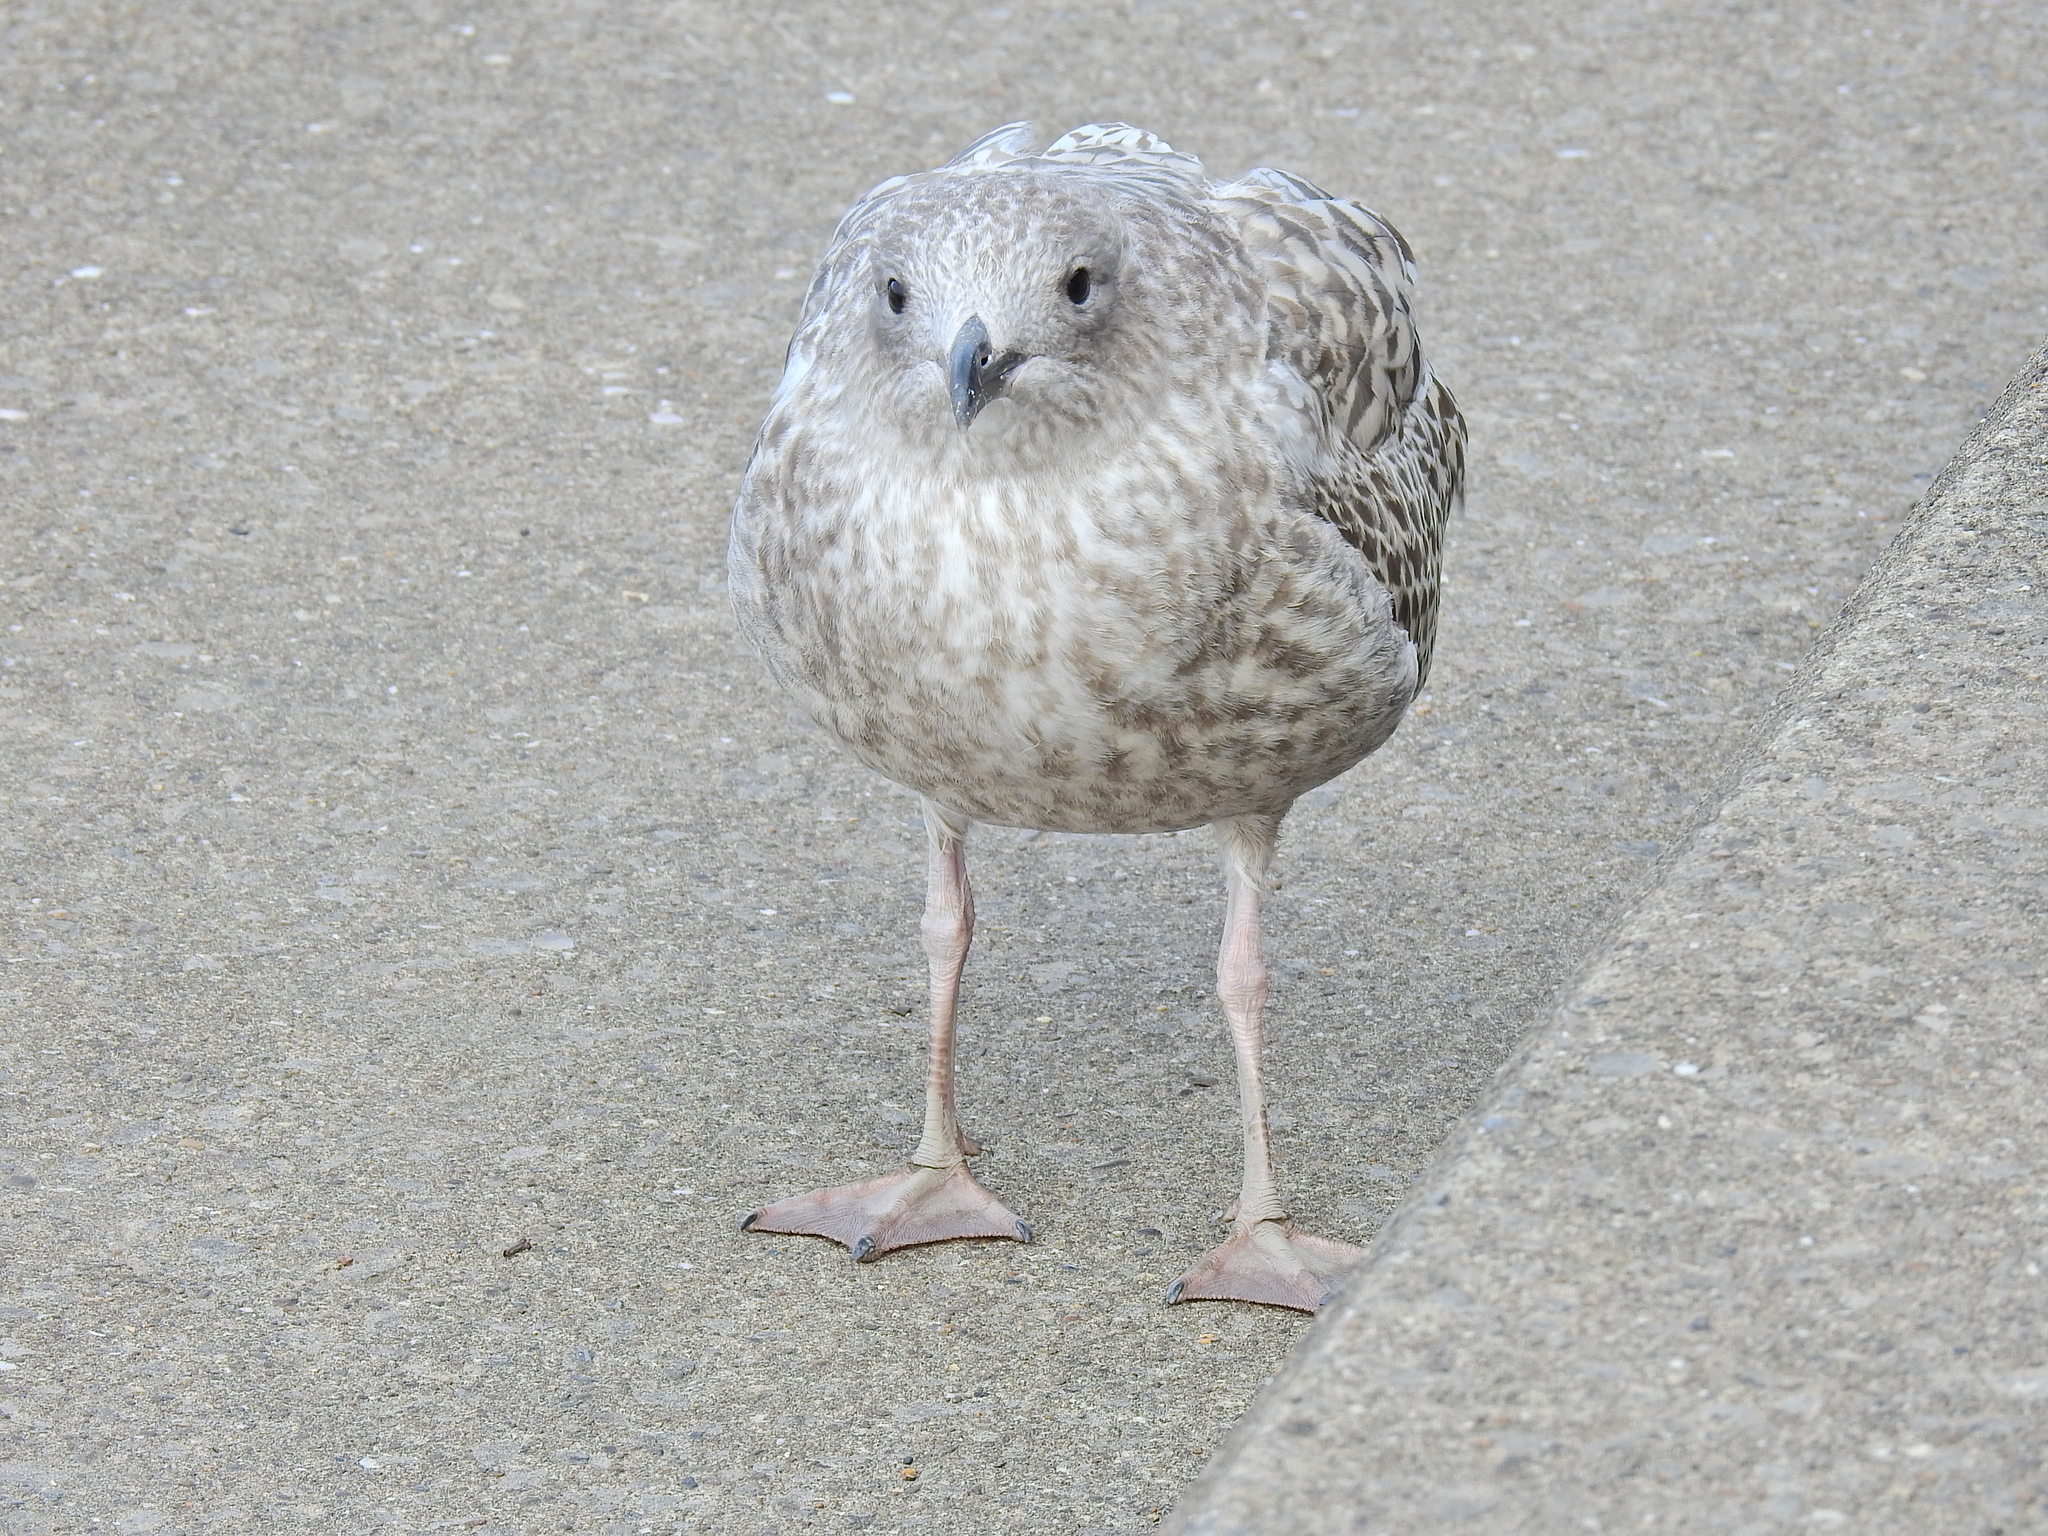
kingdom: Animalia
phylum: Chordata
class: Aves
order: Charadriiformes
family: Laridae
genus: Larus
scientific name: Larus argentatus
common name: Herring gull
